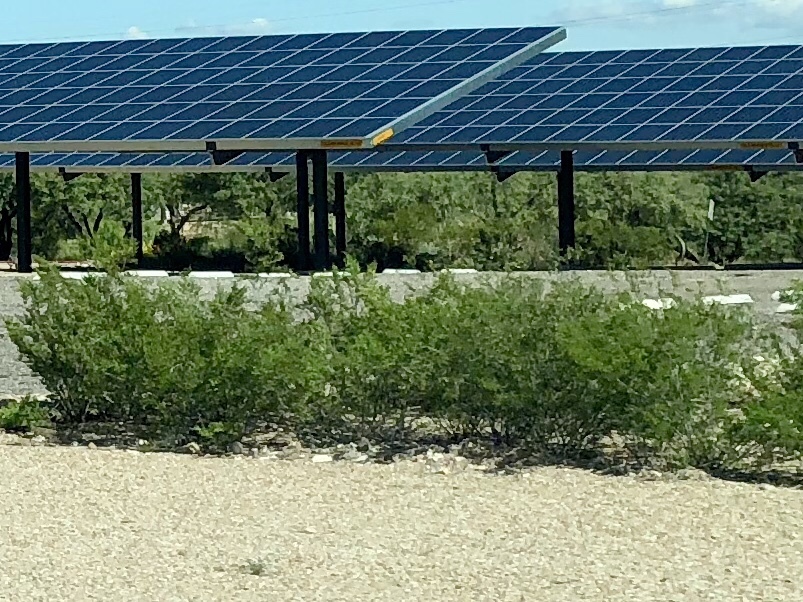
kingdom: Plantae
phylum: Tracheophyta
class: Magnoliopsida
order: Zygophyllales
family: Zygophyllaceae
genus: Larrea
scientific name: Larrea tridentata
